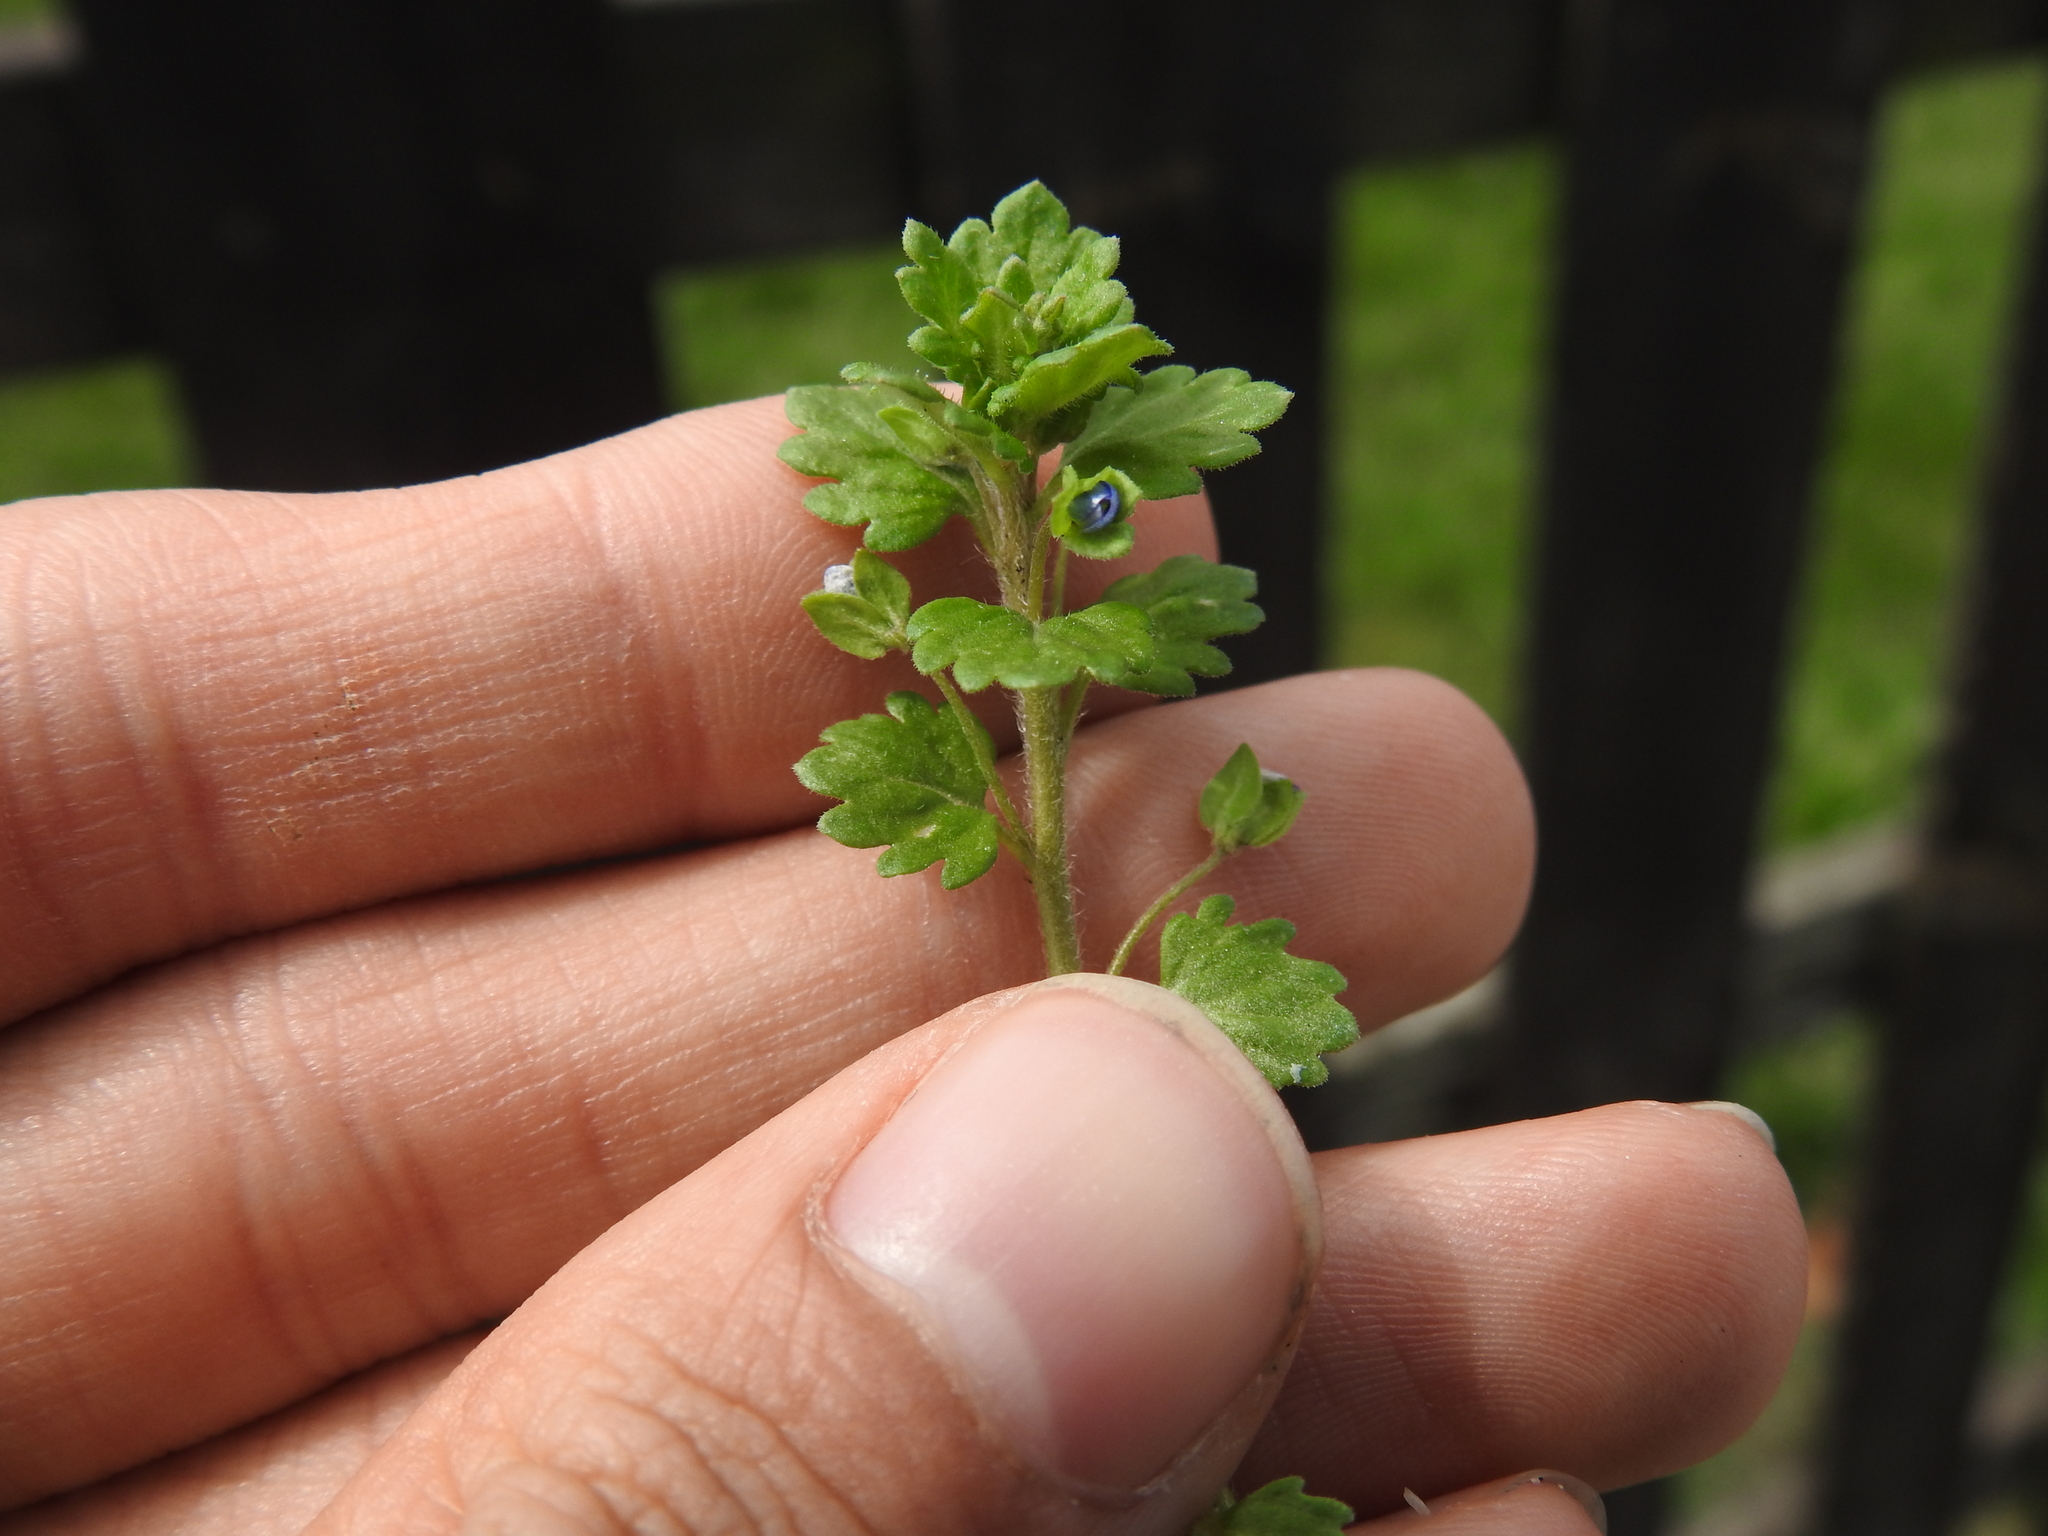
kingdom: Plantae
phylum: Tracheophyta
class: Magnoliopsida
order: Lamiales
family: Plantaginaceae
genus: Veronica
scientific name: Veronica polita
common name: Grey field-speedwell
